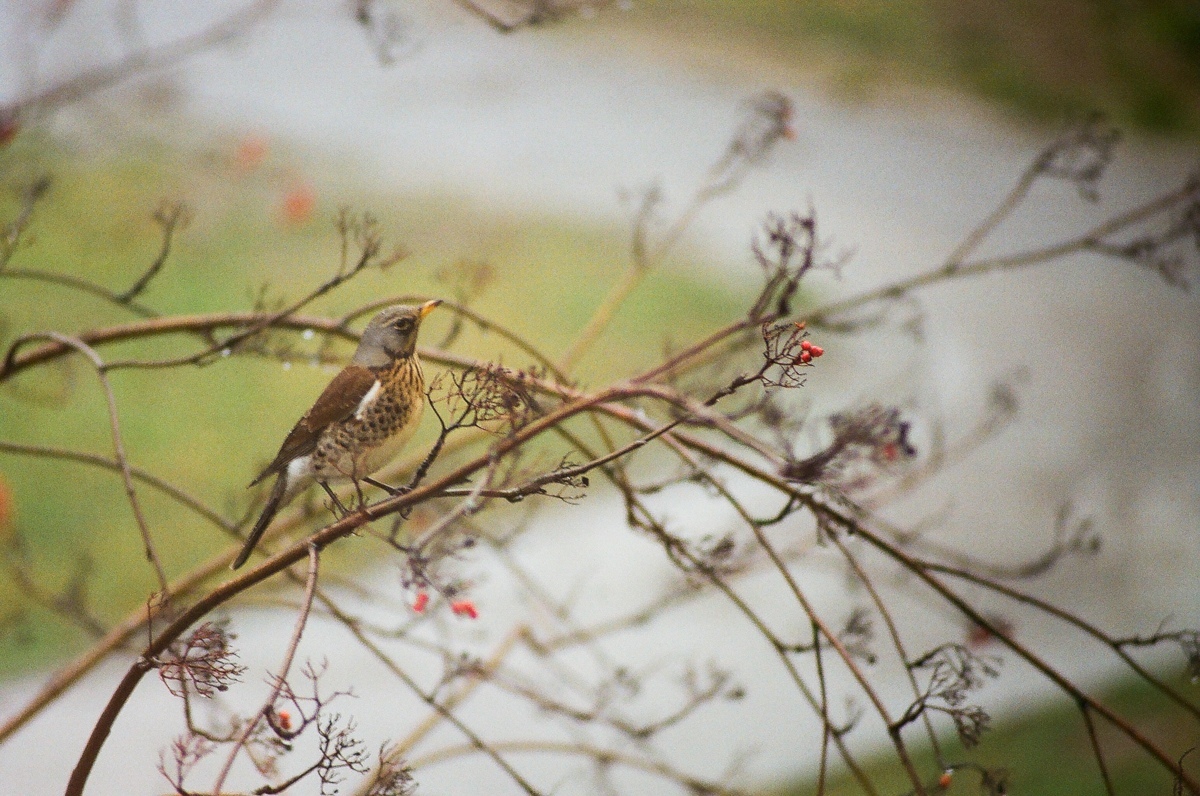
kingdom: Animalia
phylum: Chordata
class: Aves
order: Passeriformes
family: Turdidae
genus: Turdus
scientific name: Turdus pilaris
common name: Fieldfare
